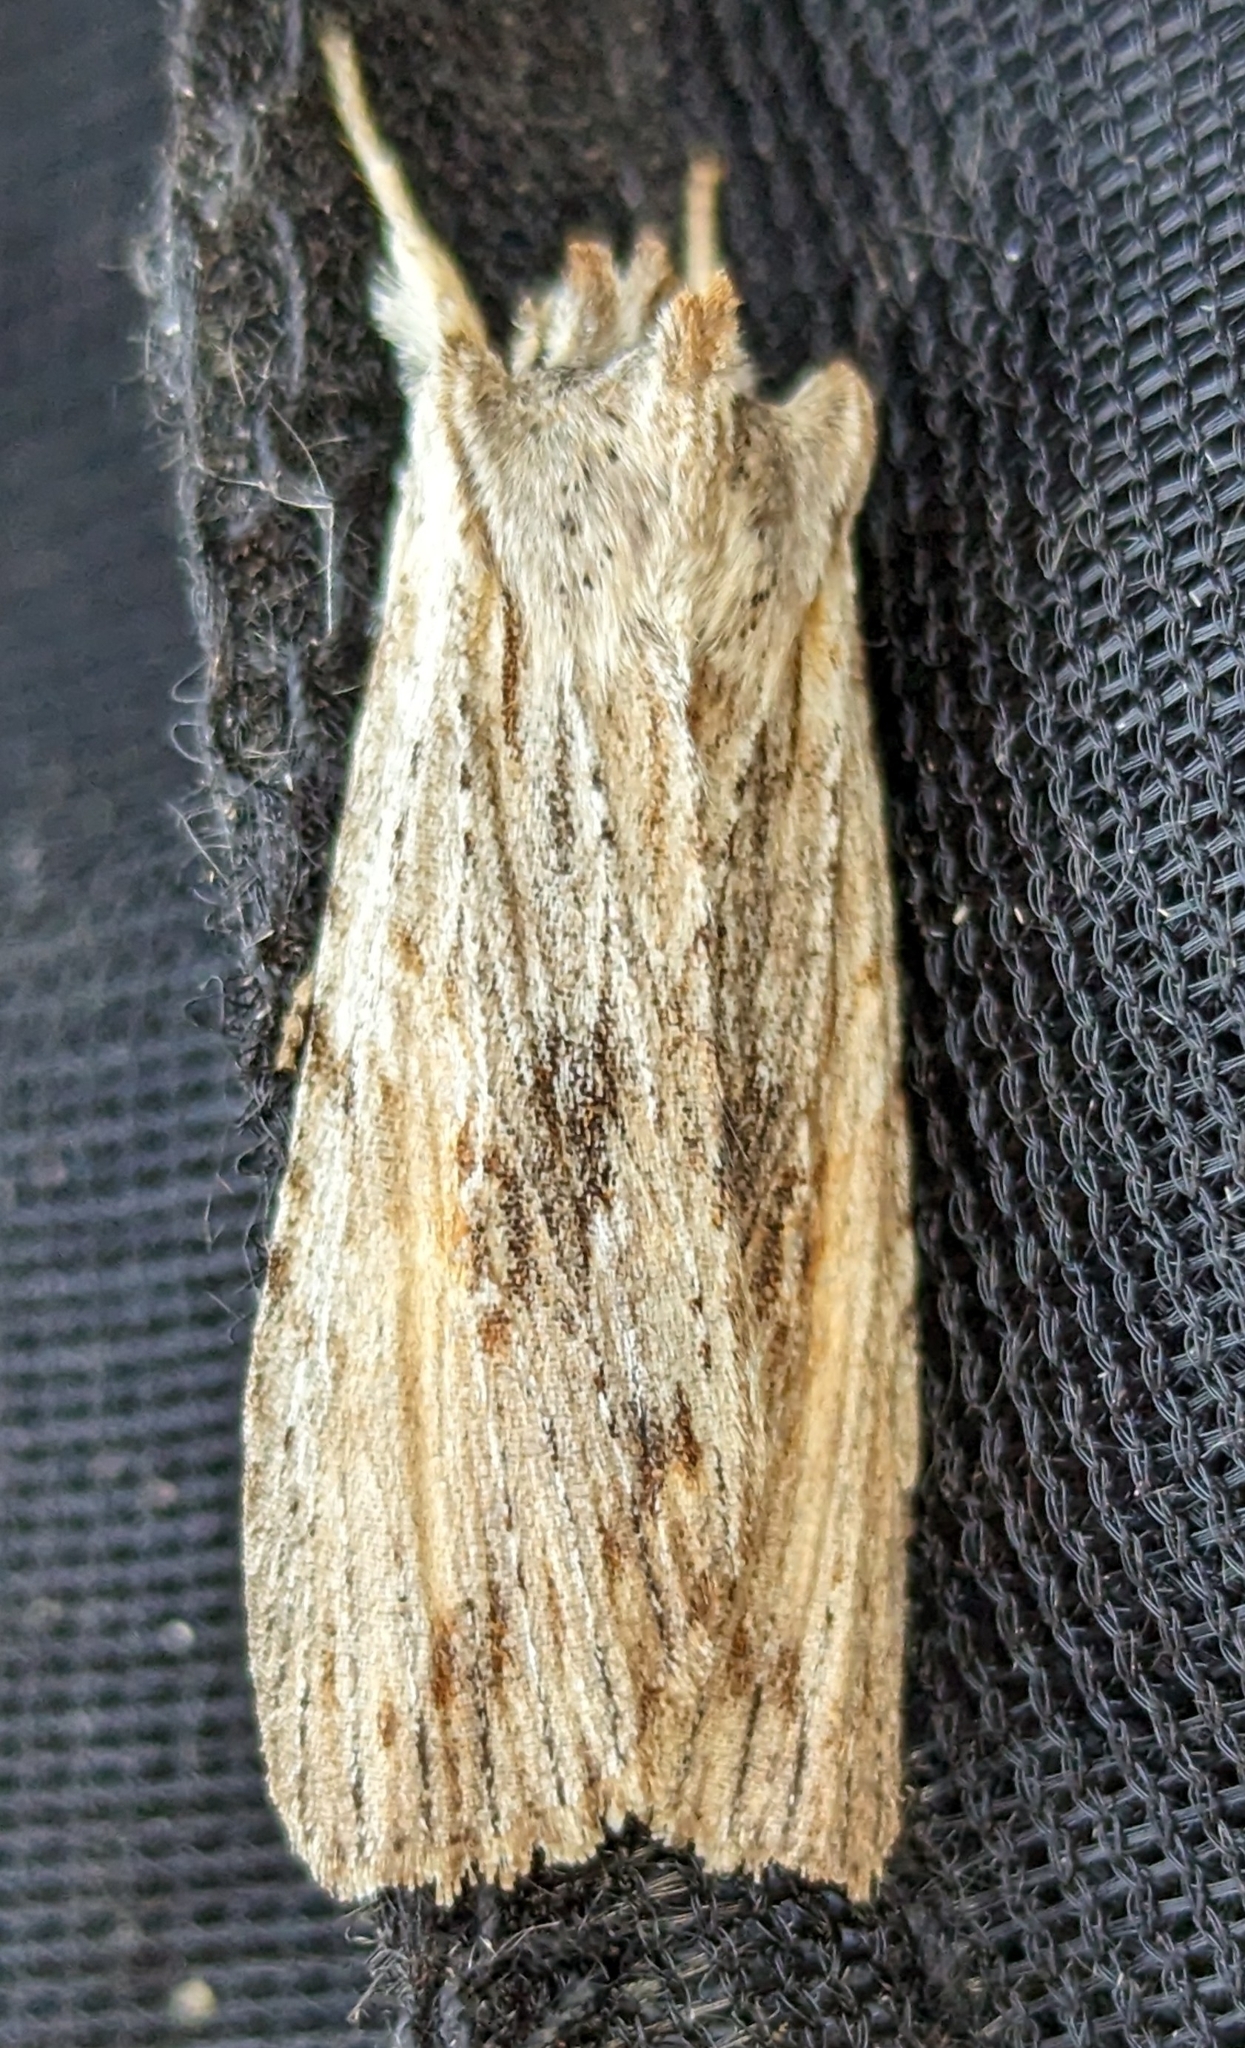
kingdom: Animalia
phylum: Arthropoda
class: Insecta
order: Lepidoptera
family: Noctuidae
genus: Lithophane
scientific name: Lithophane amanda
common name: Amanda's pinion moth
